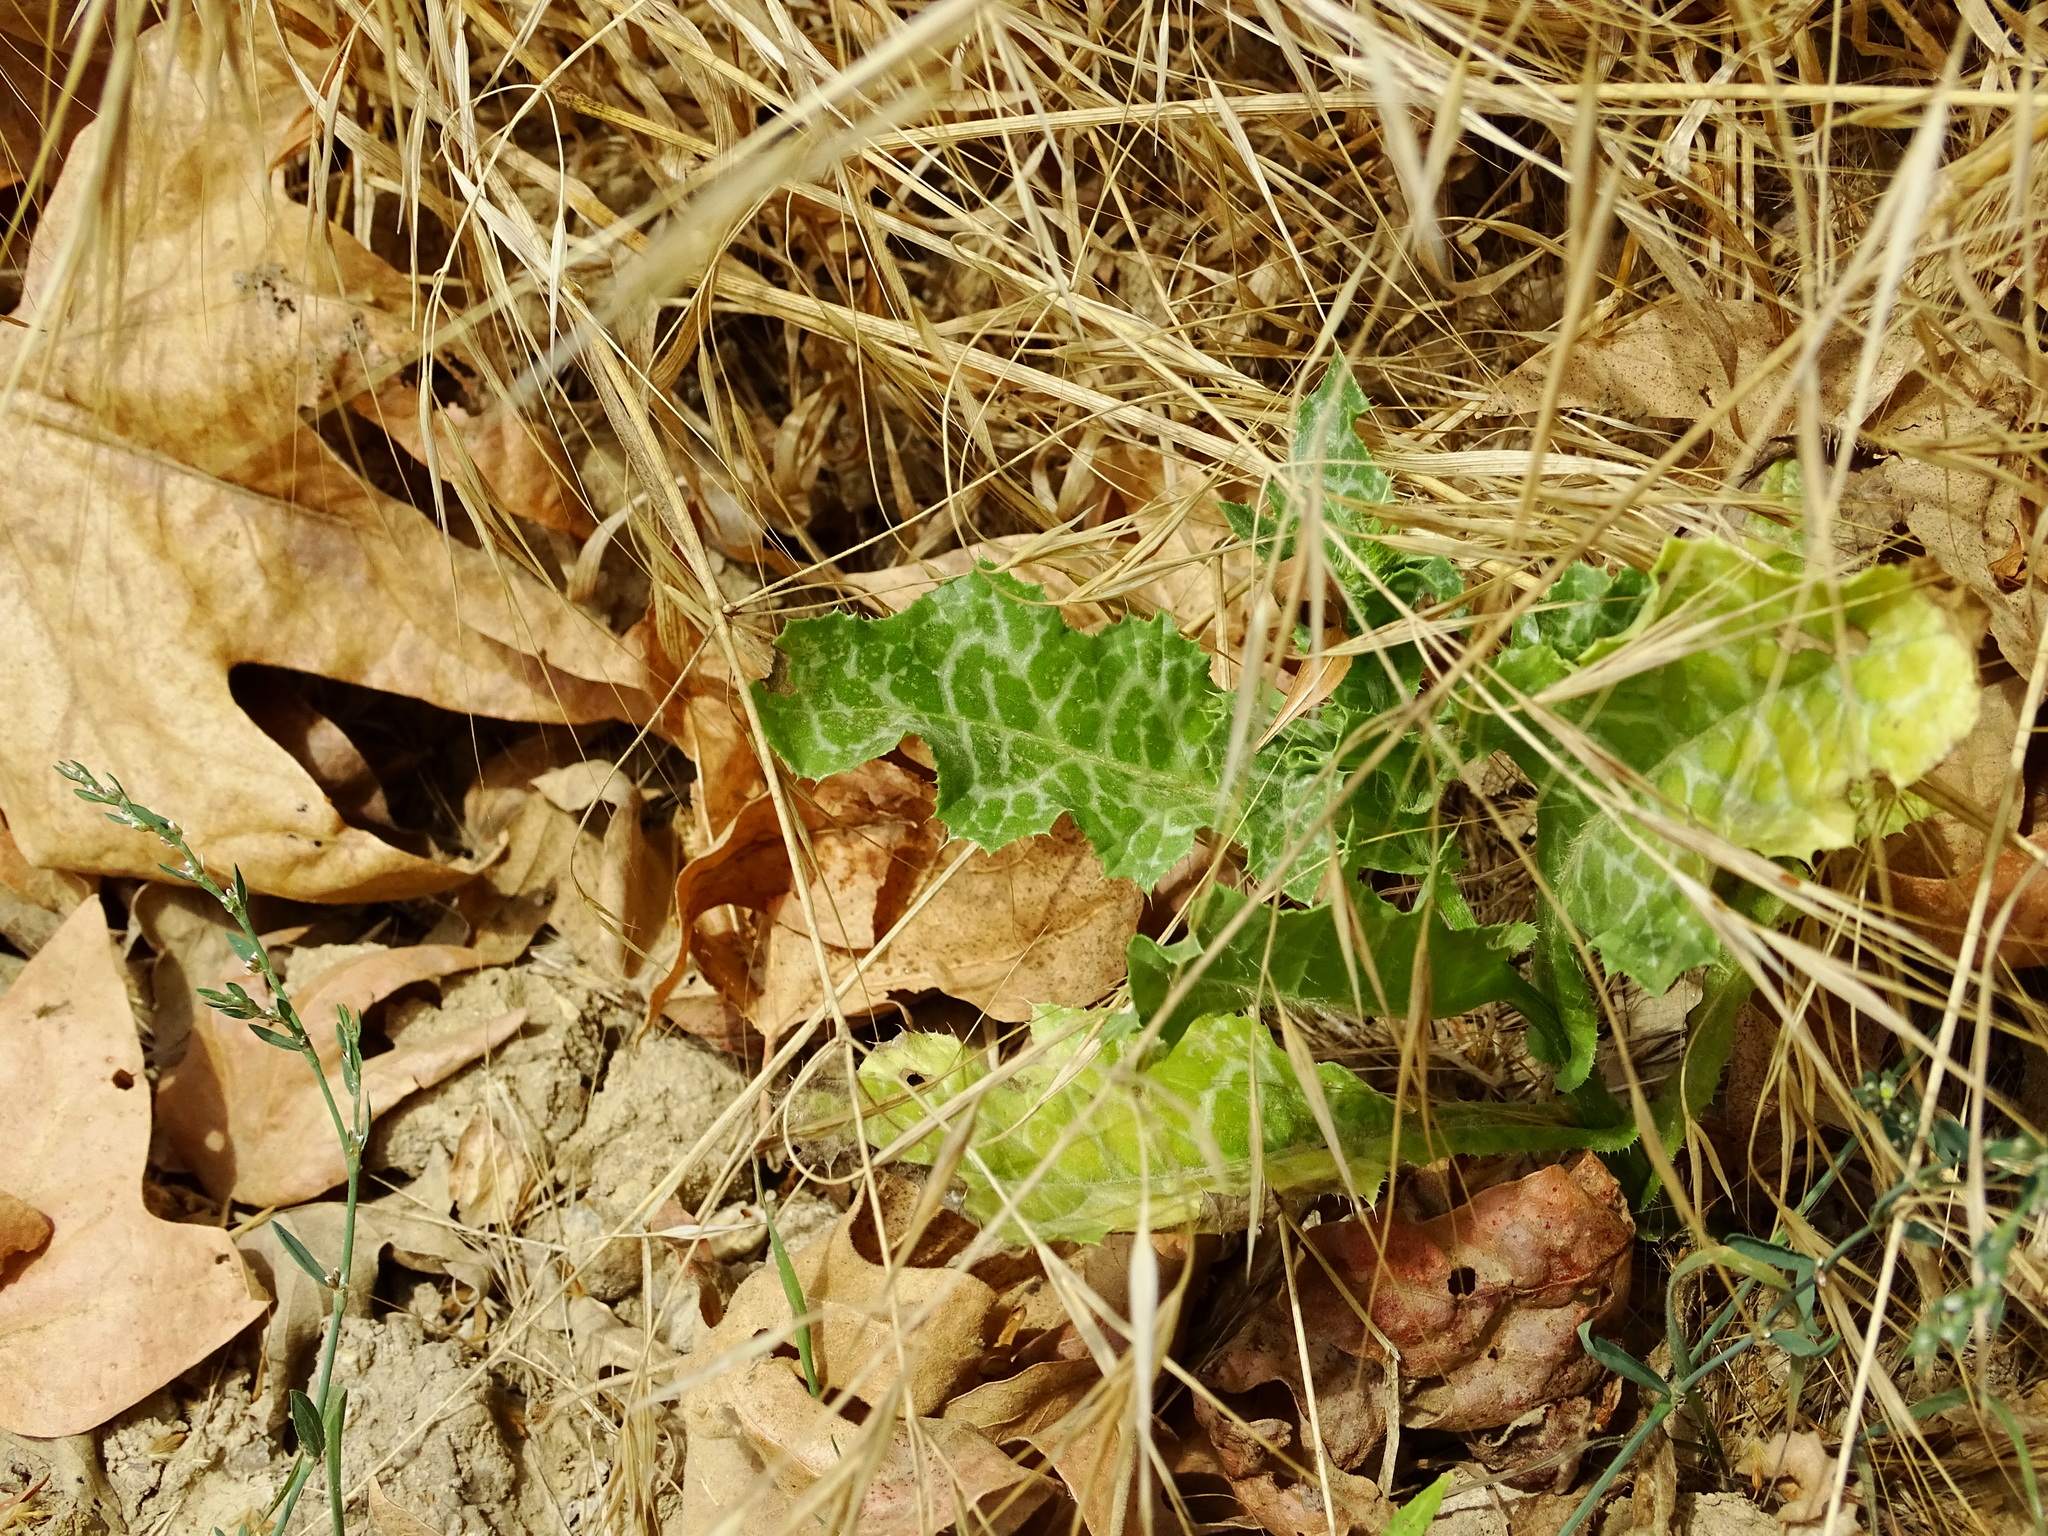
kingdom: Plantae
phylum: Tracheophyta
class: Magnoliopsida
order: Asterales
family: Asteraceae
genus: Silybum
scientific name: Silybum marianum
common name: Milk thistle
